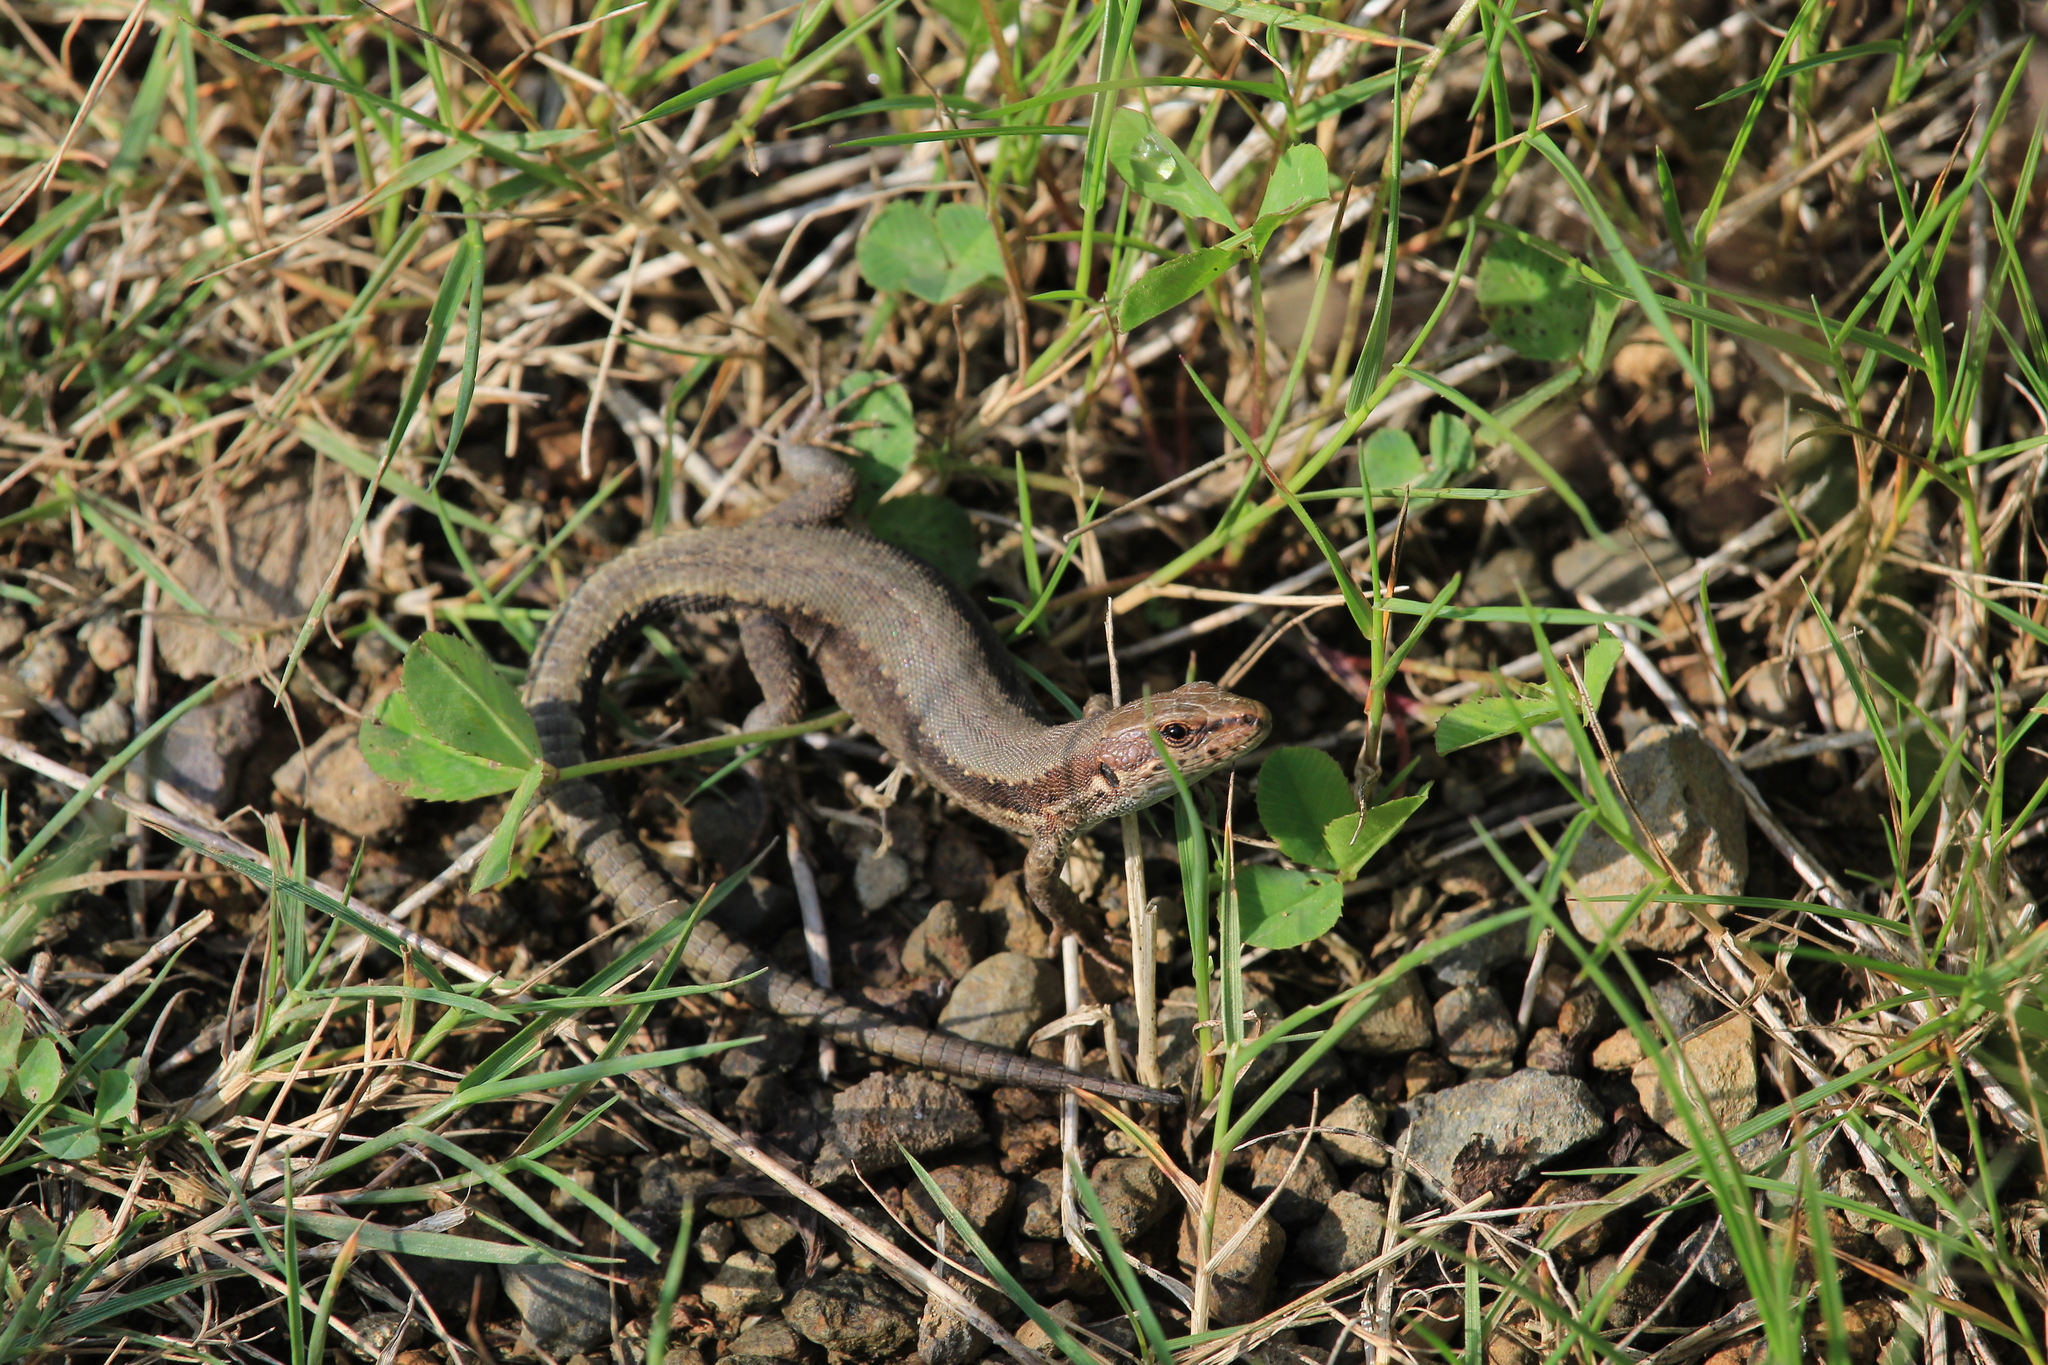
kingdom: Animalia
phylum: Chordata
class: Squamata
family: Lacertidae
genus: Darevskia
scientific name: Darevskia derjugini
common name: Derjugin's lizard
